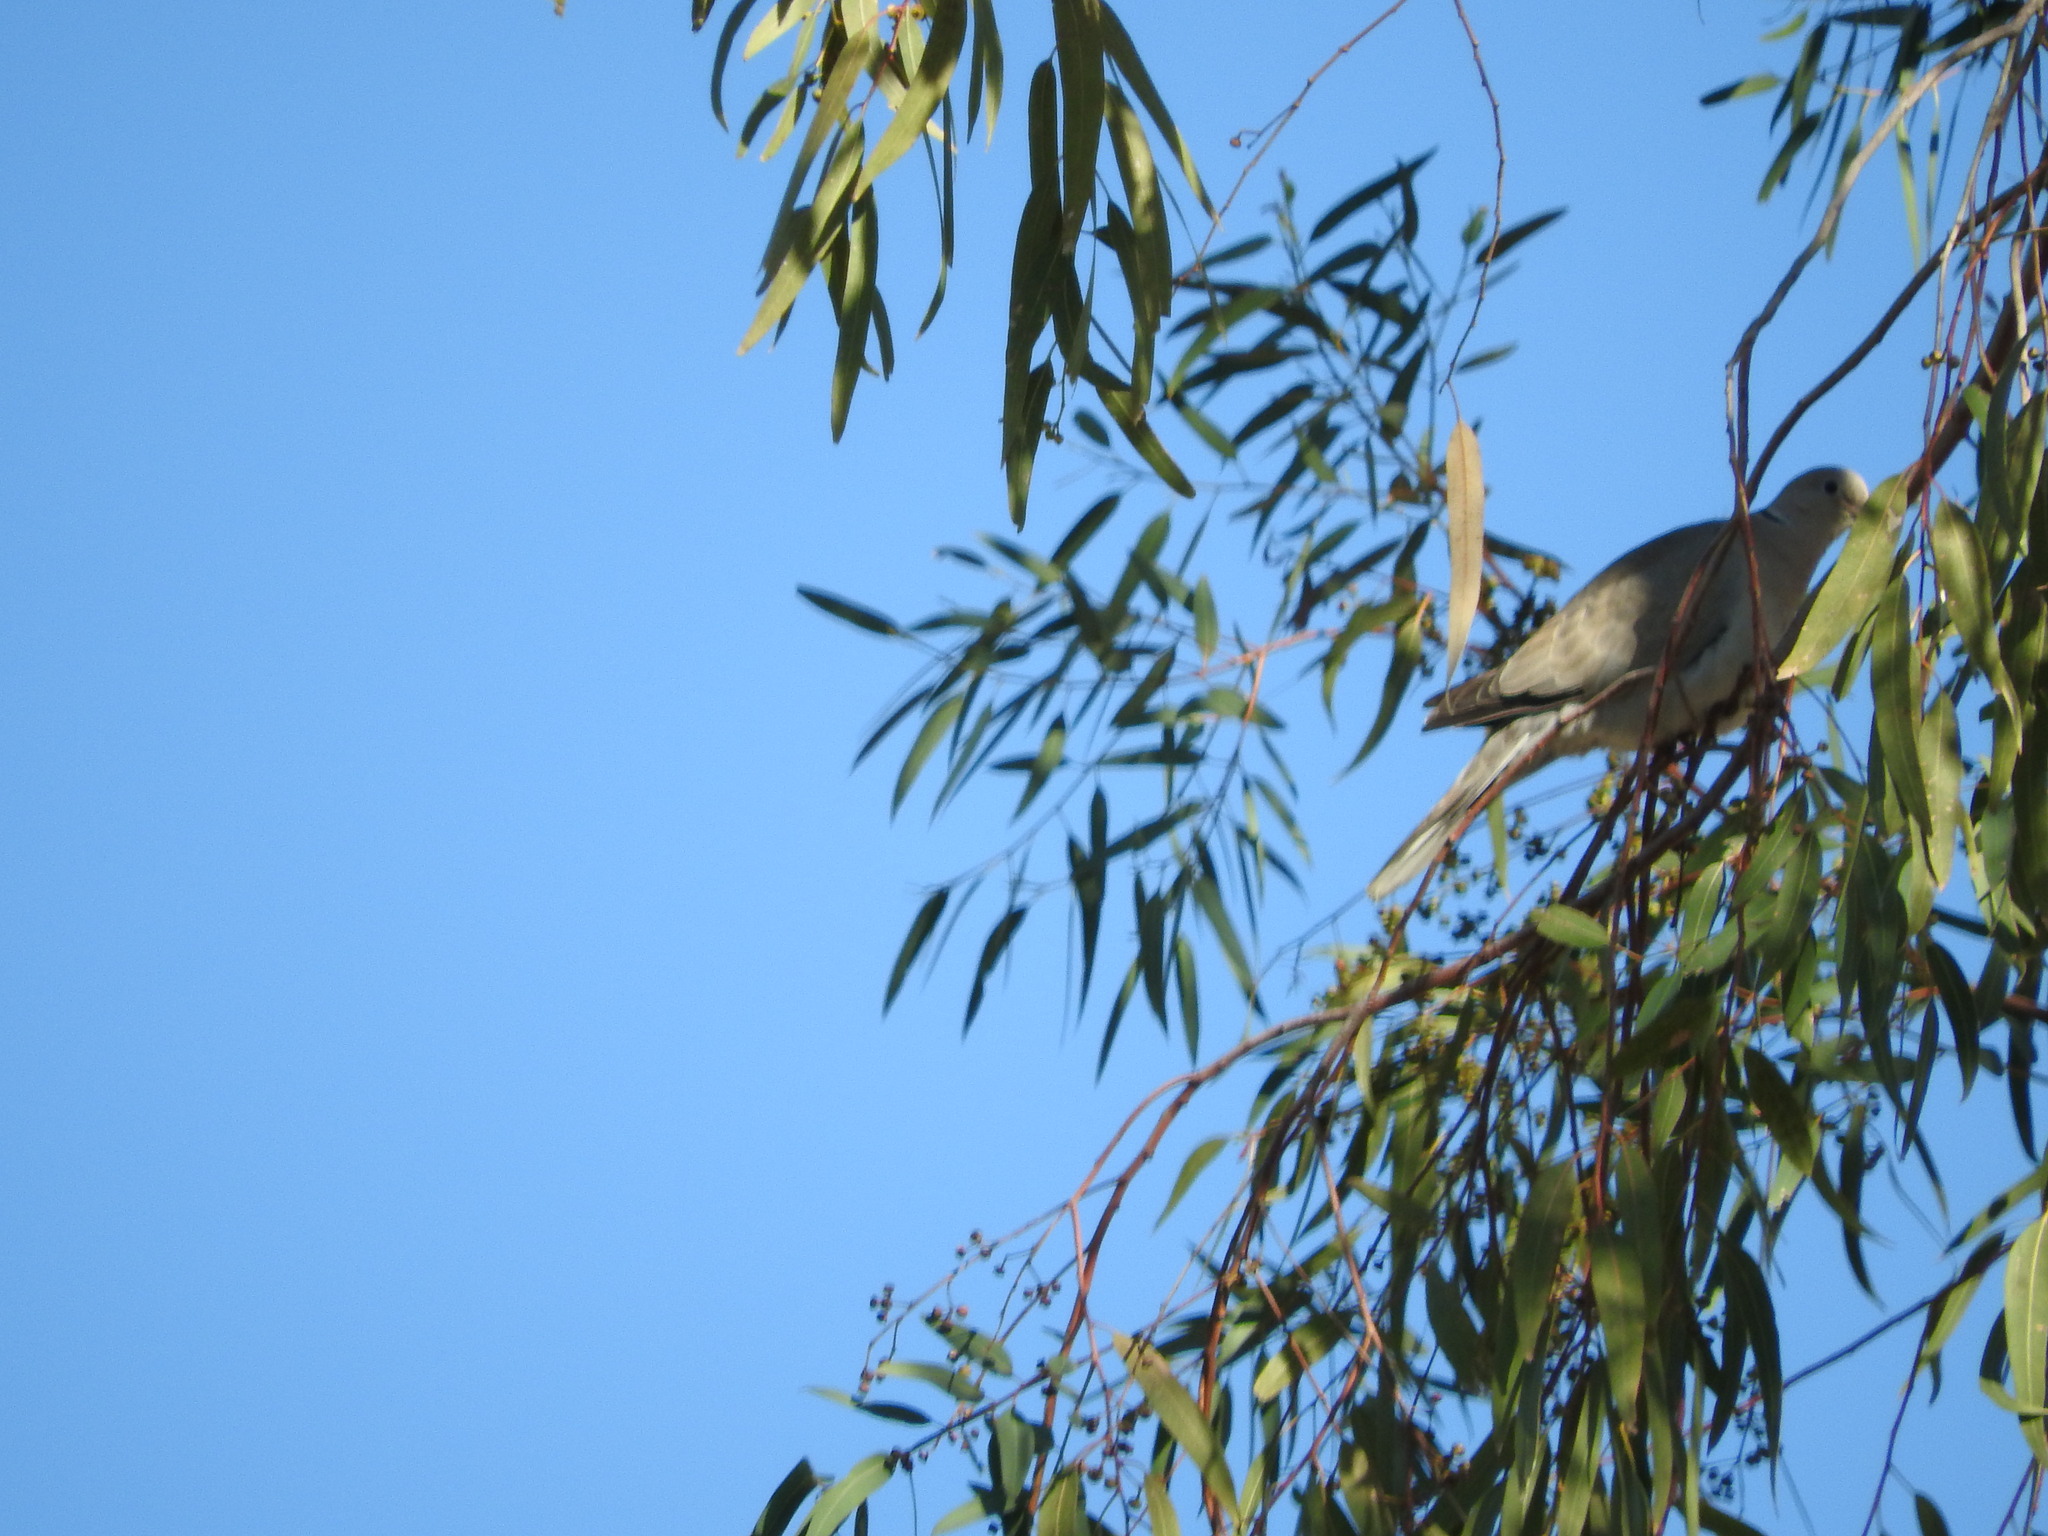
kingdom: Animalia
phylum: Chordata
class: Aves
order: Columbiformes
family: Columbidae
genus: Streptopelia
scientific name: Streptopelia decaocto
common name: Eurasian collared dove
